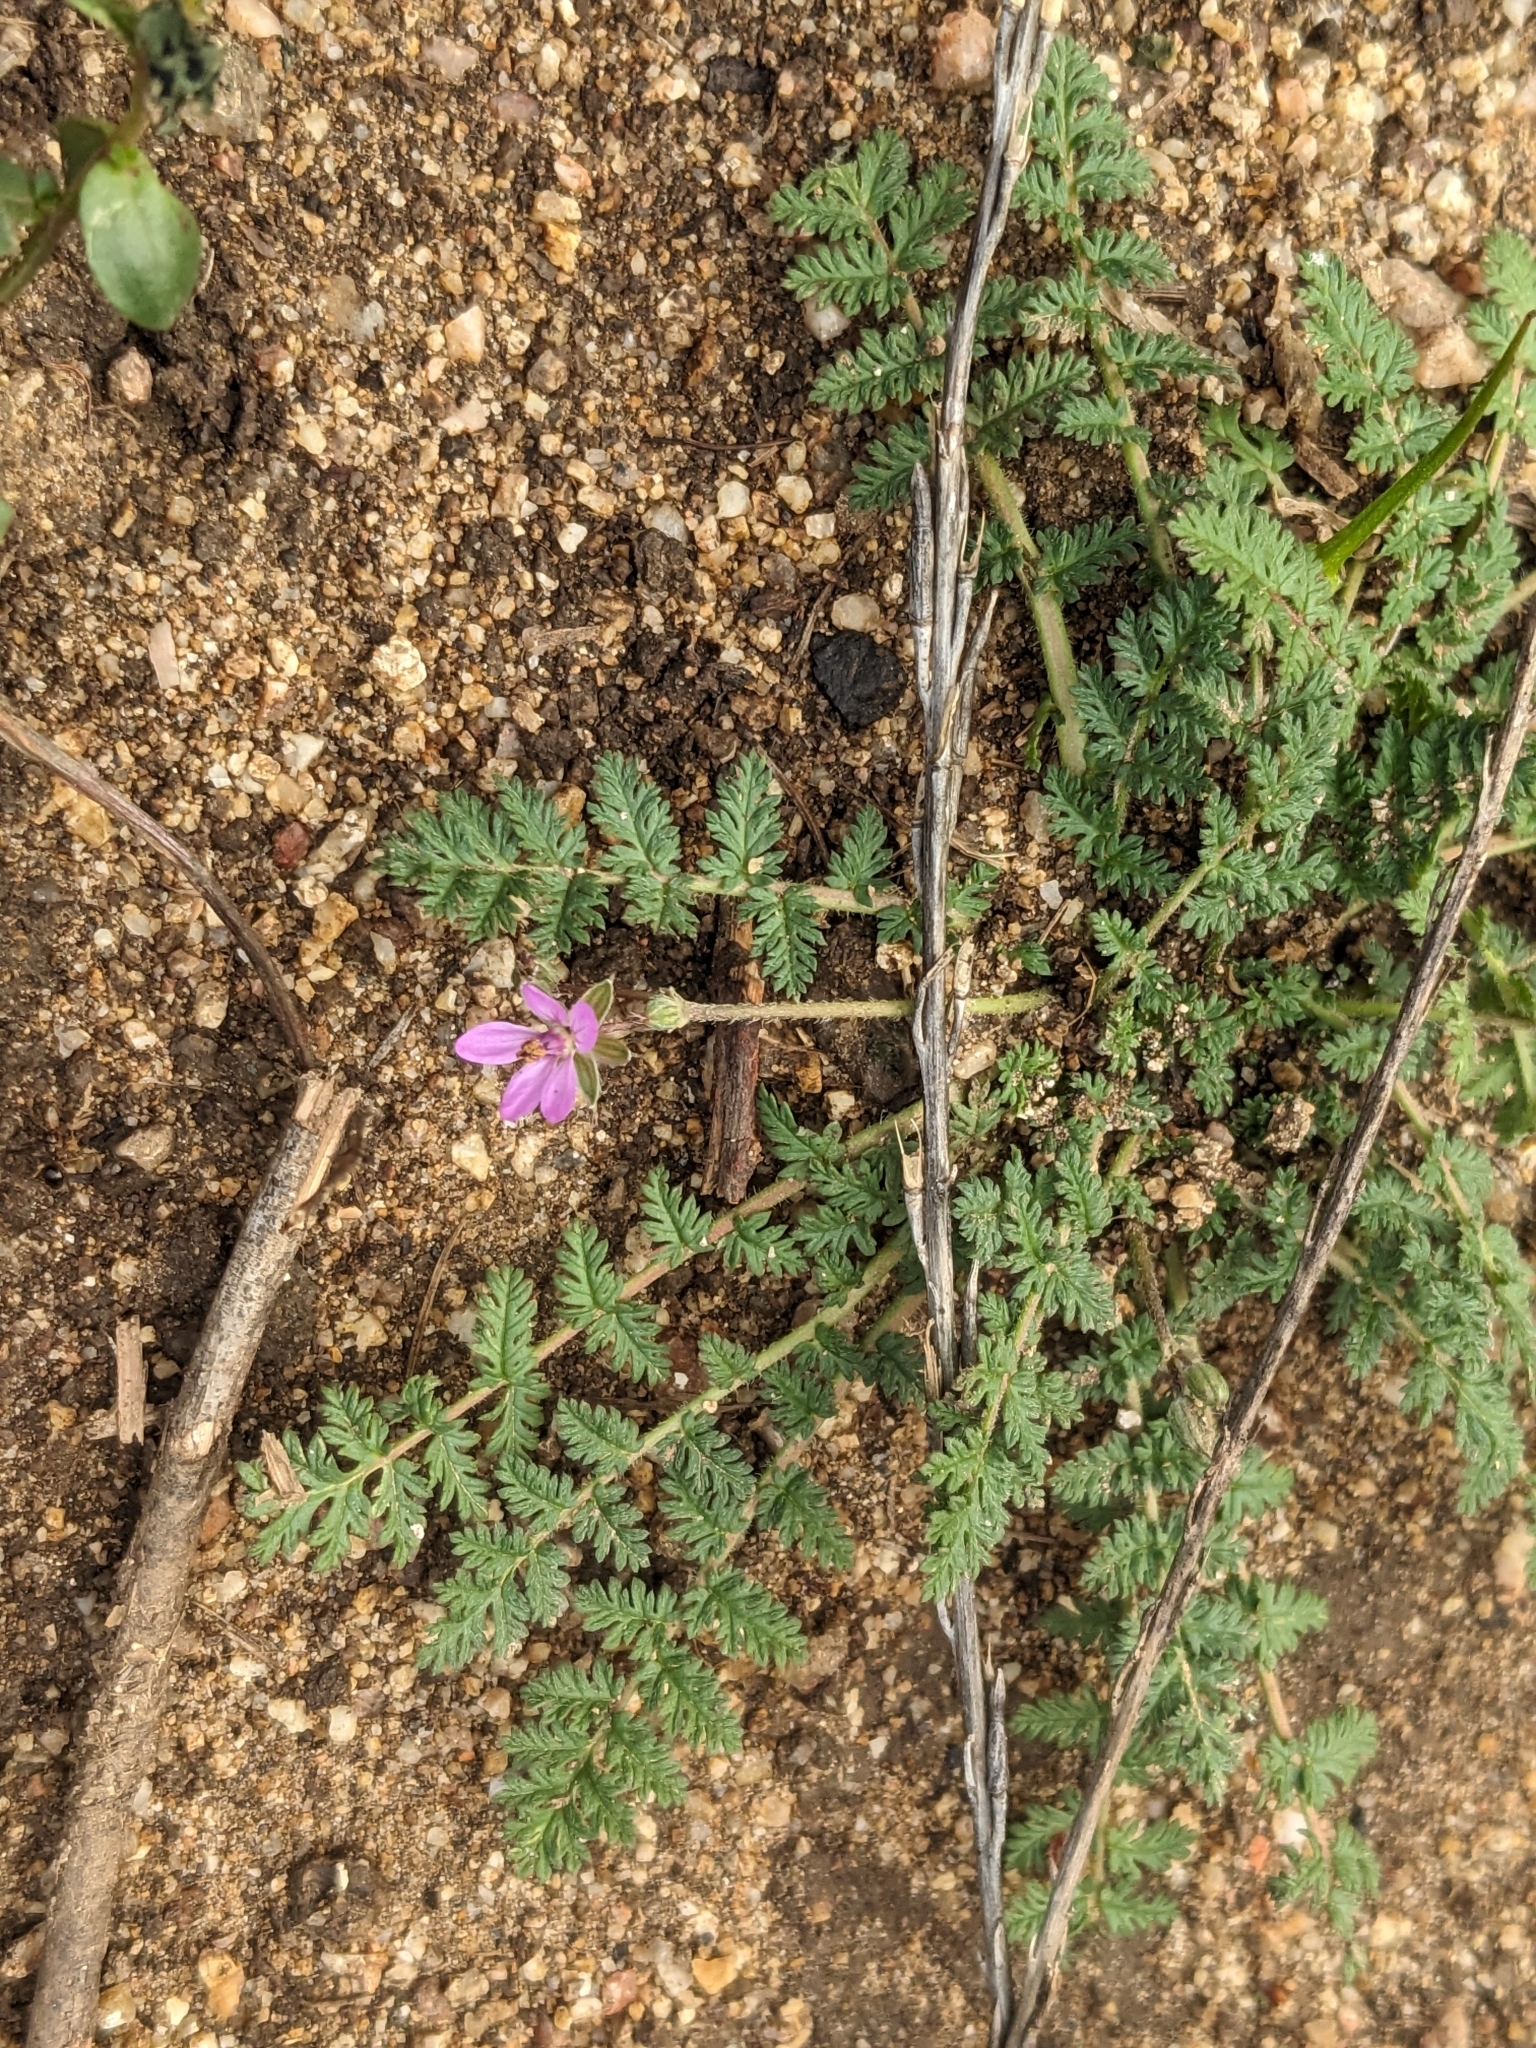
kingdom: Plantae
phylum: Tracheophyta
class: Magnoliopsida
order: Geraniales
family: Geraniaceae
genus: Erodium
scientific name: Erodium cicutarium
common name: Common stork's-bill
